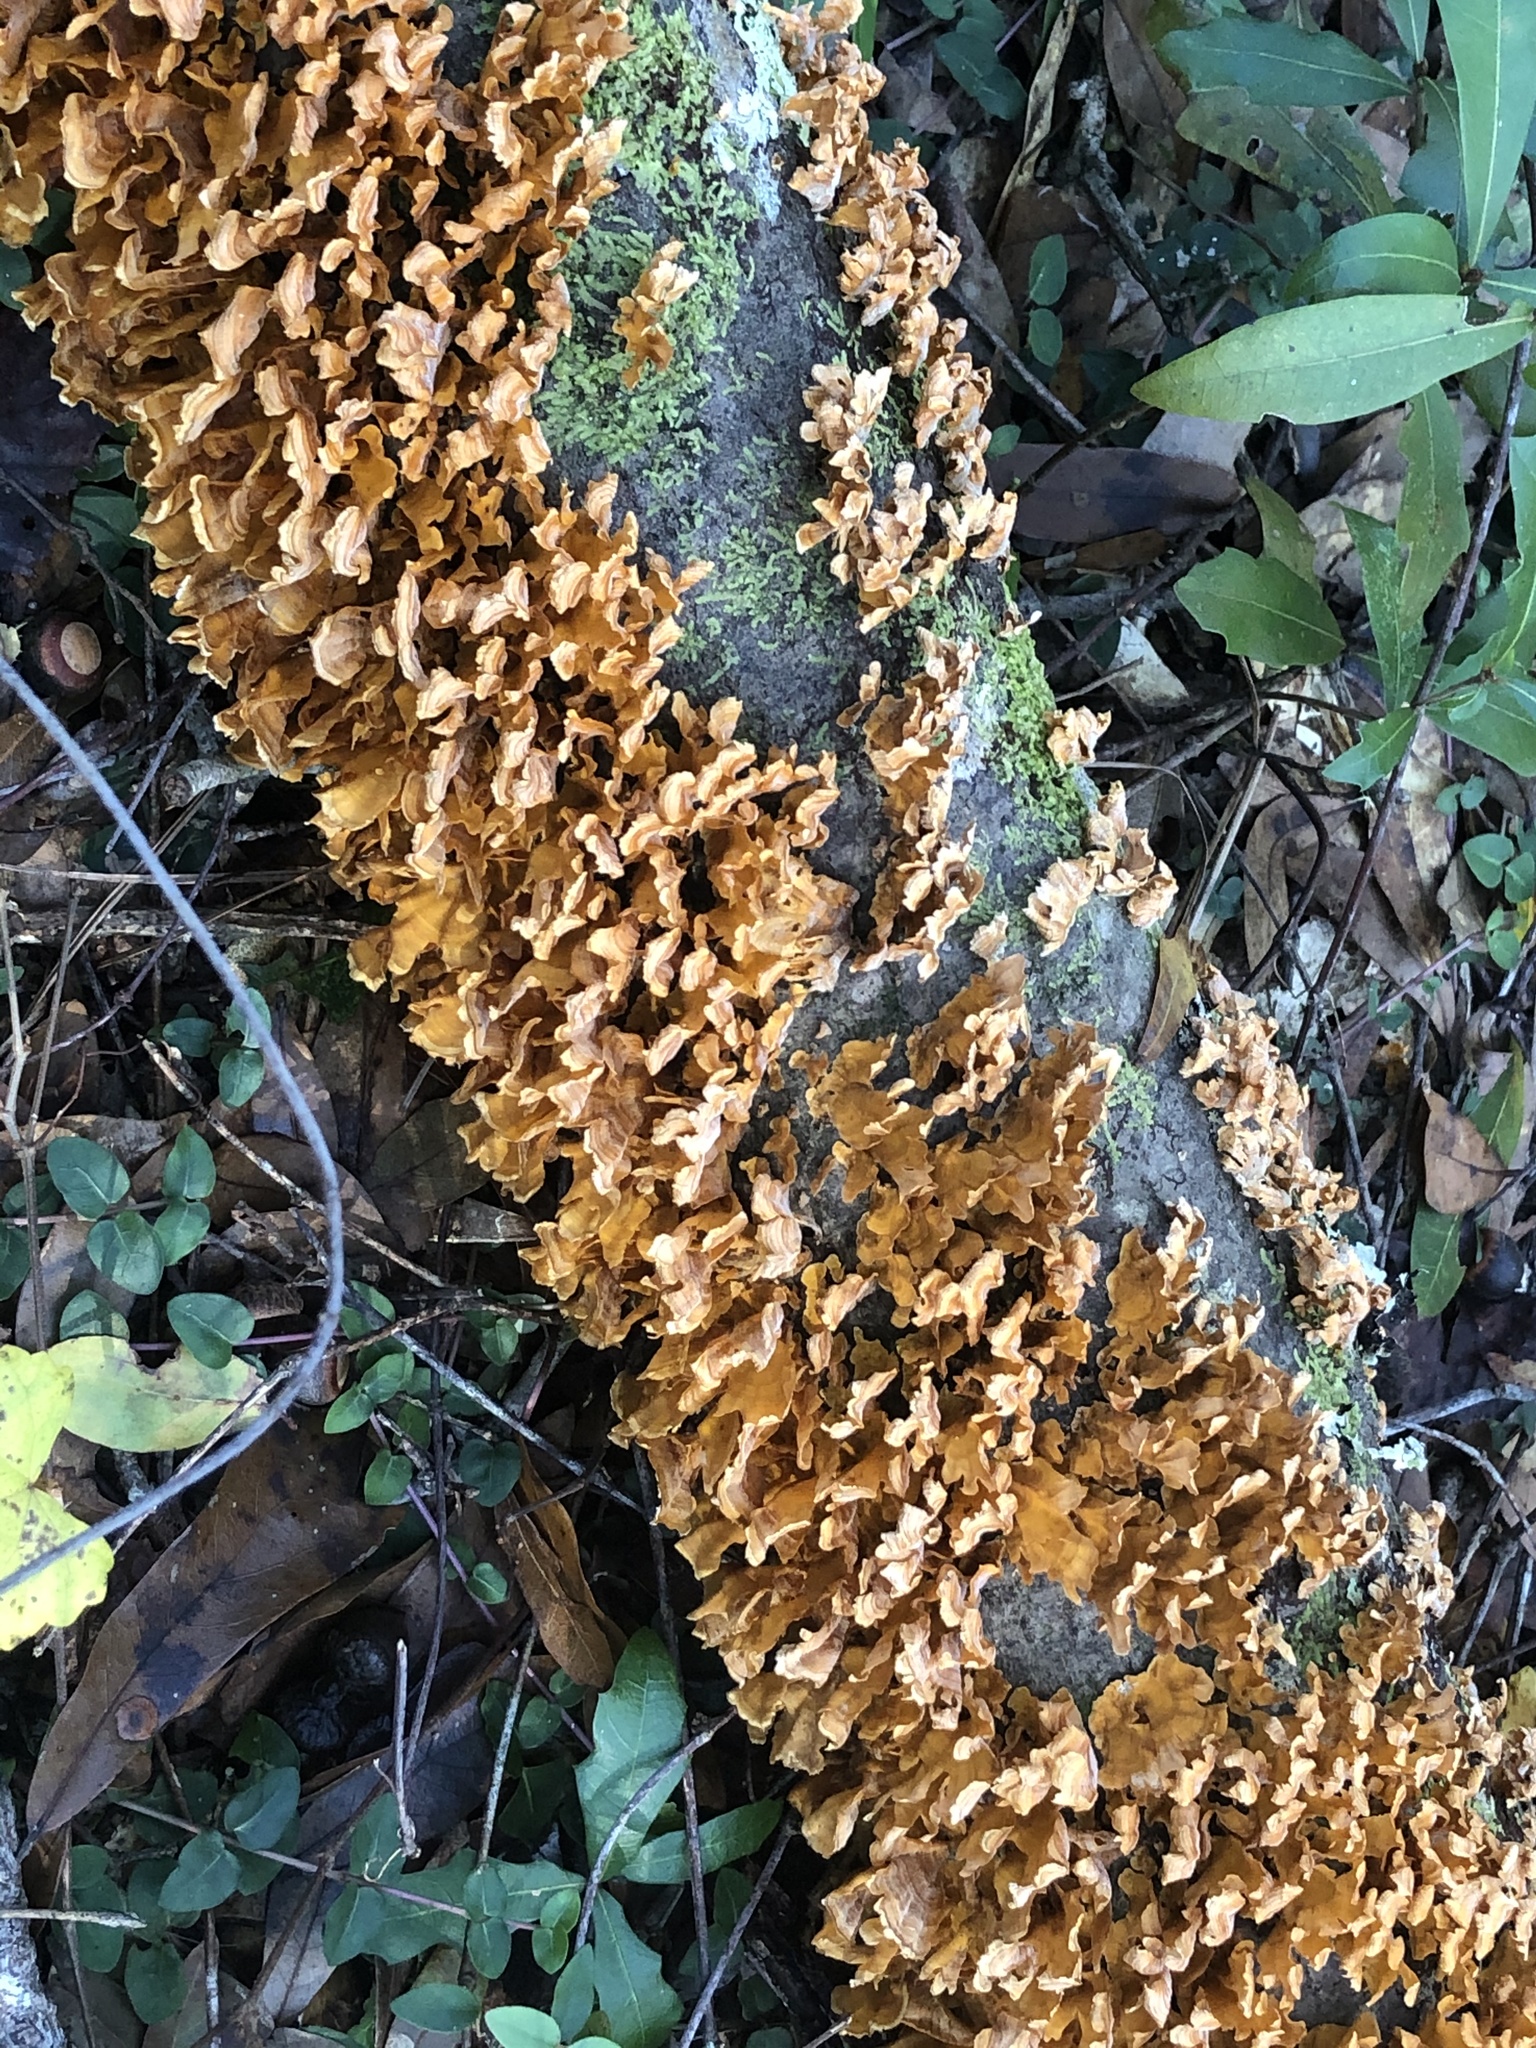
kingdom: Fungi
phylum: Basidiomycota
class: Agaricomycetes
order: Russulales
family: Stereaceae
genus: Stereum
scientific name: Stereum complicatum
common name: Crowded parchment
